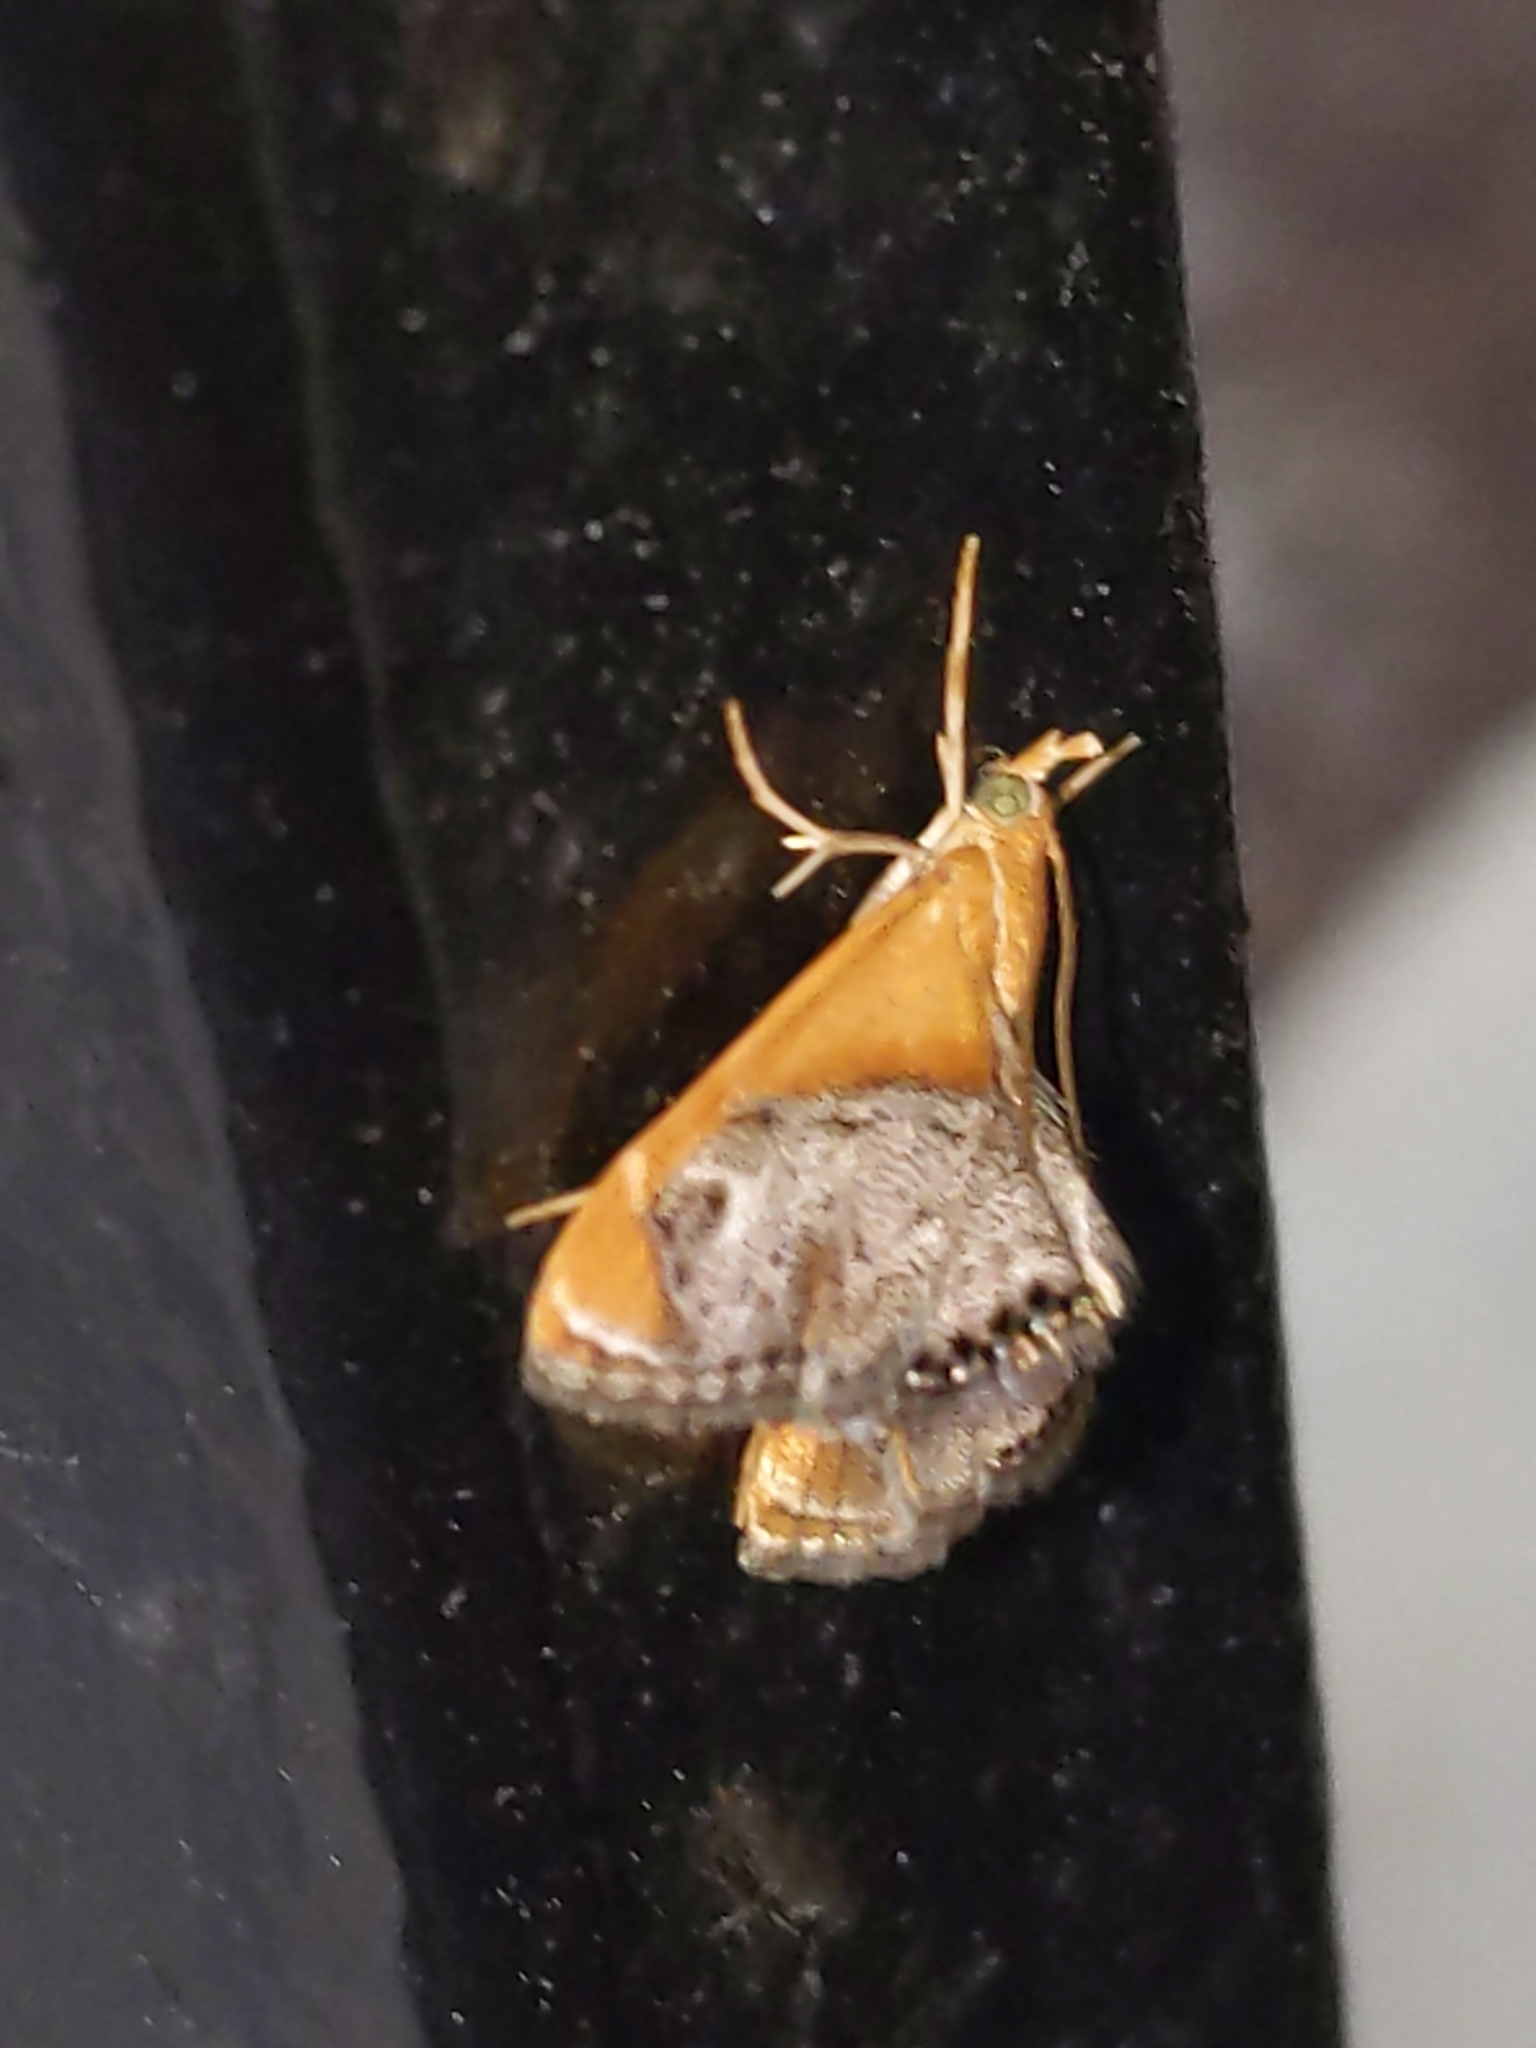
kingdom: Animalia
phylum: Arthropoda
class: Insecta
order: Lepidoptera
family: Crambidae
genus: Chalcoela
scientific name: Chalcoela iphitalis
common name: Sooty-winged chalcoela moth
